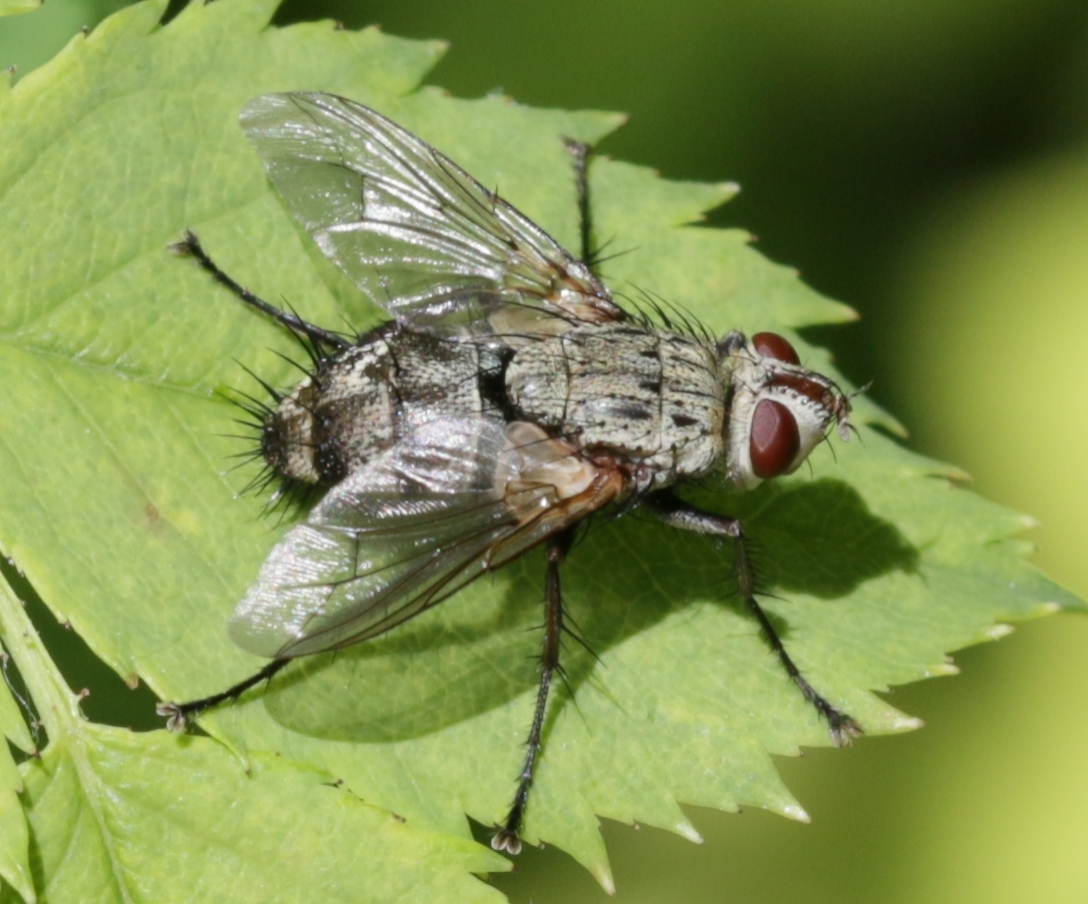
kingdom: Animalia
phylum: Arthropoda
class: Insecta
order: Diptera
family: Tachinidae
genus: Microphthalma
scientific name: Microphthalma europaea
